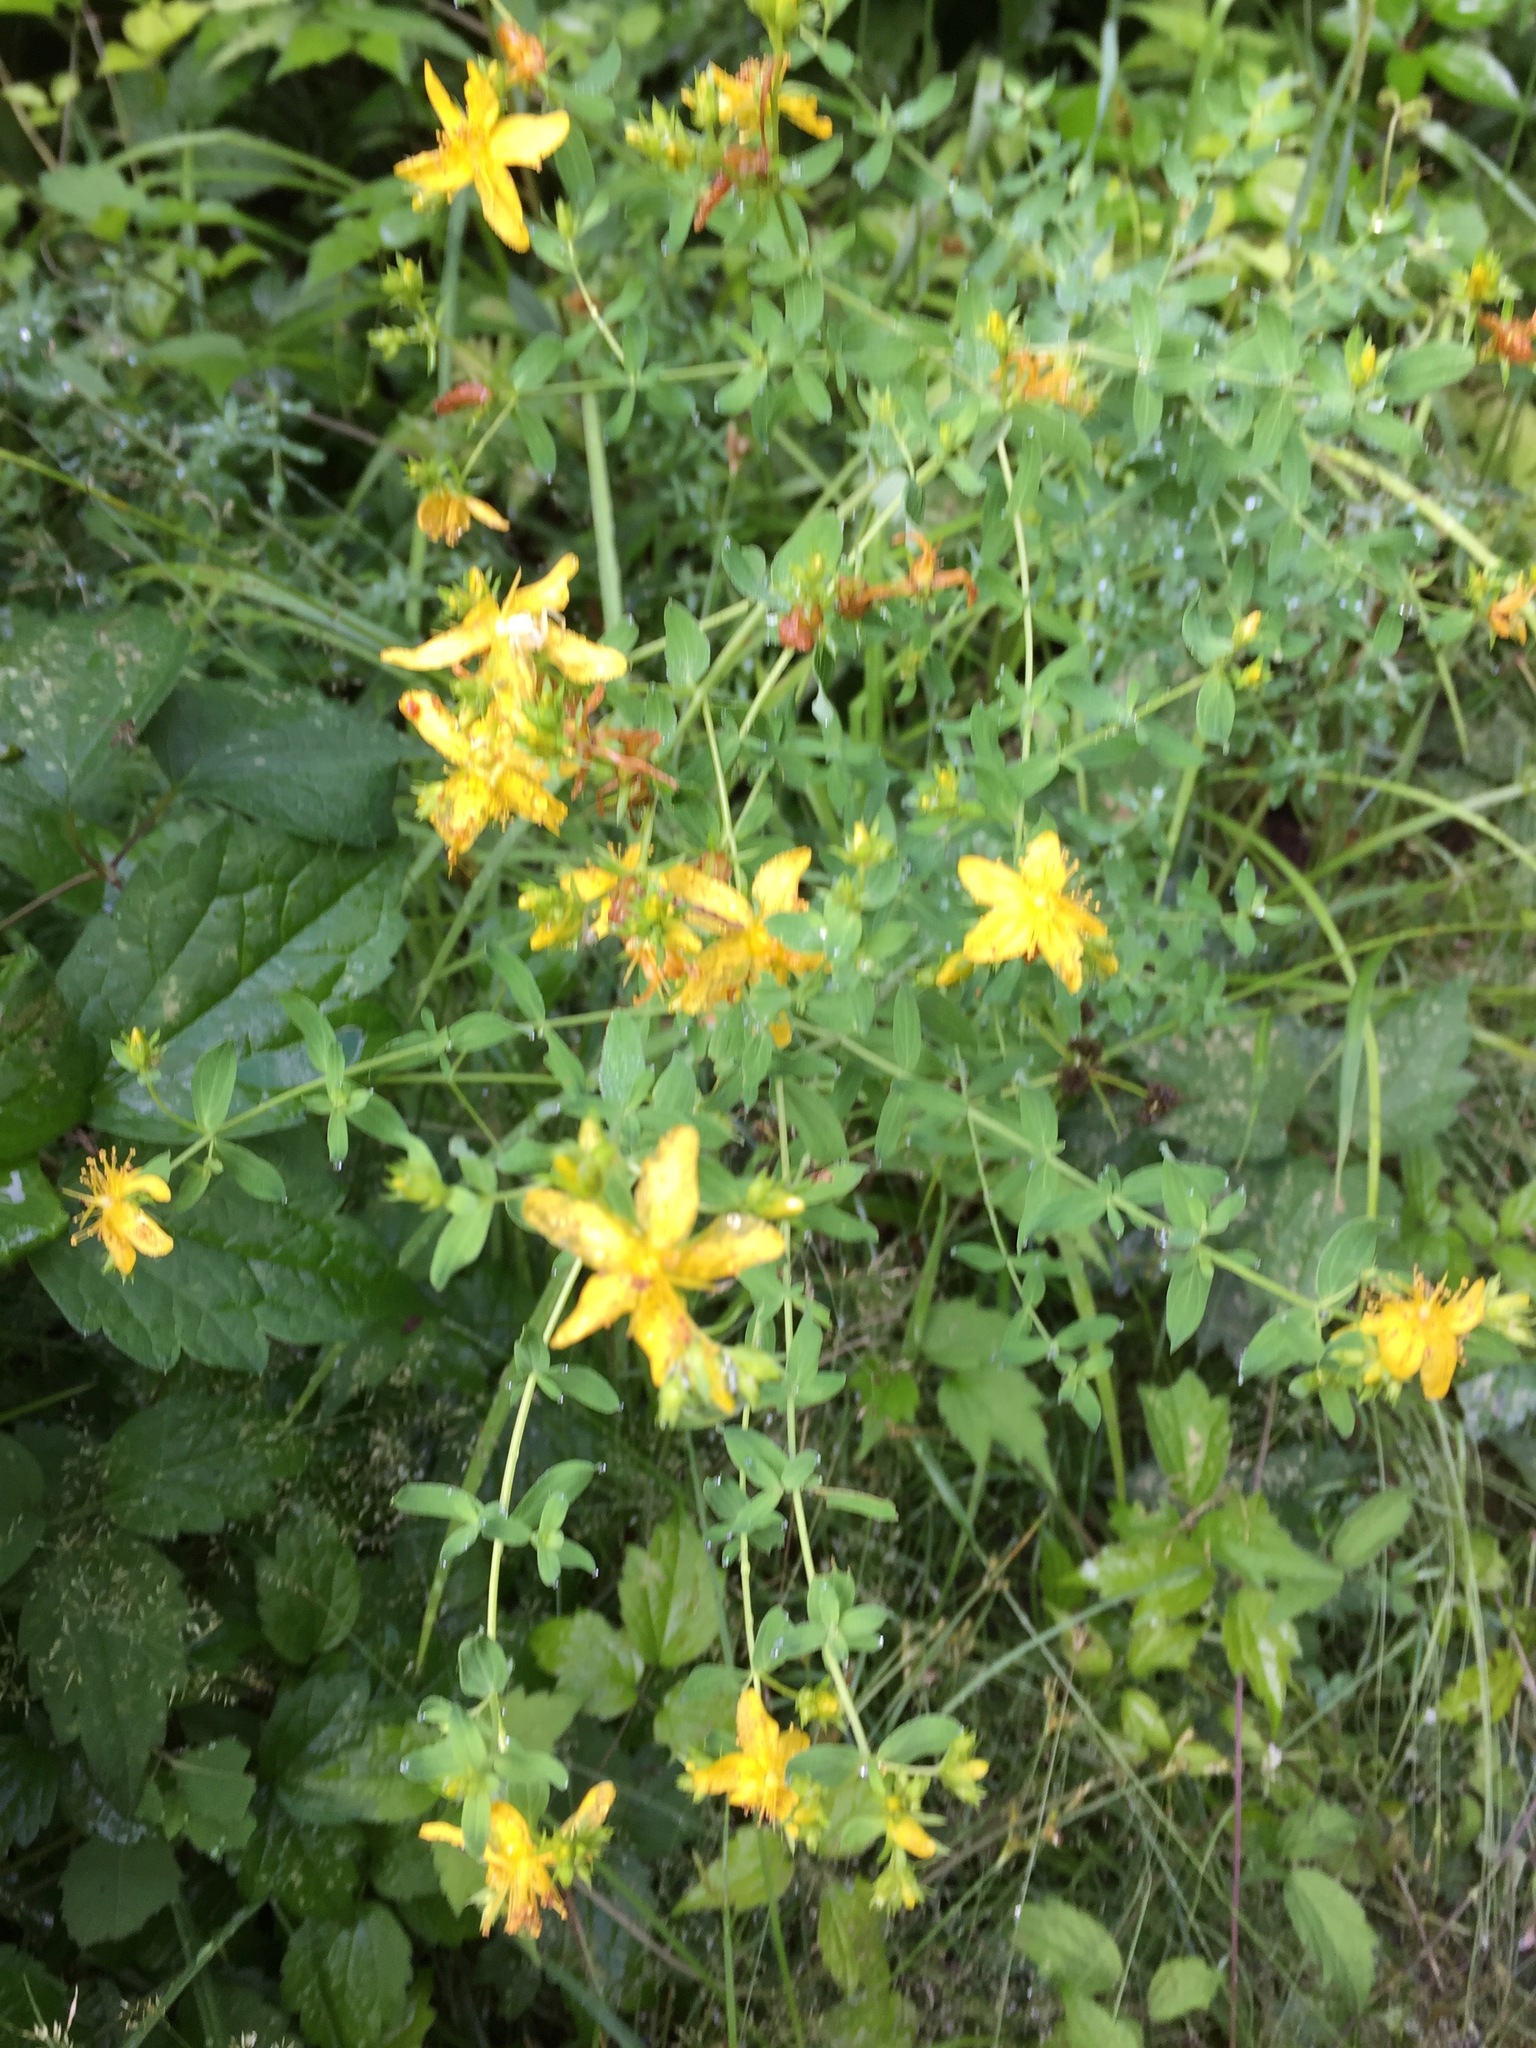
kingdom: Plantae
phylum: Tracheophyta
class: Magnoliopsida
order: Malpighiales
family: Hypericaceae
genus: Hypericum
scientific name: Hypericum perforatum
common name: Common st. johnswort
